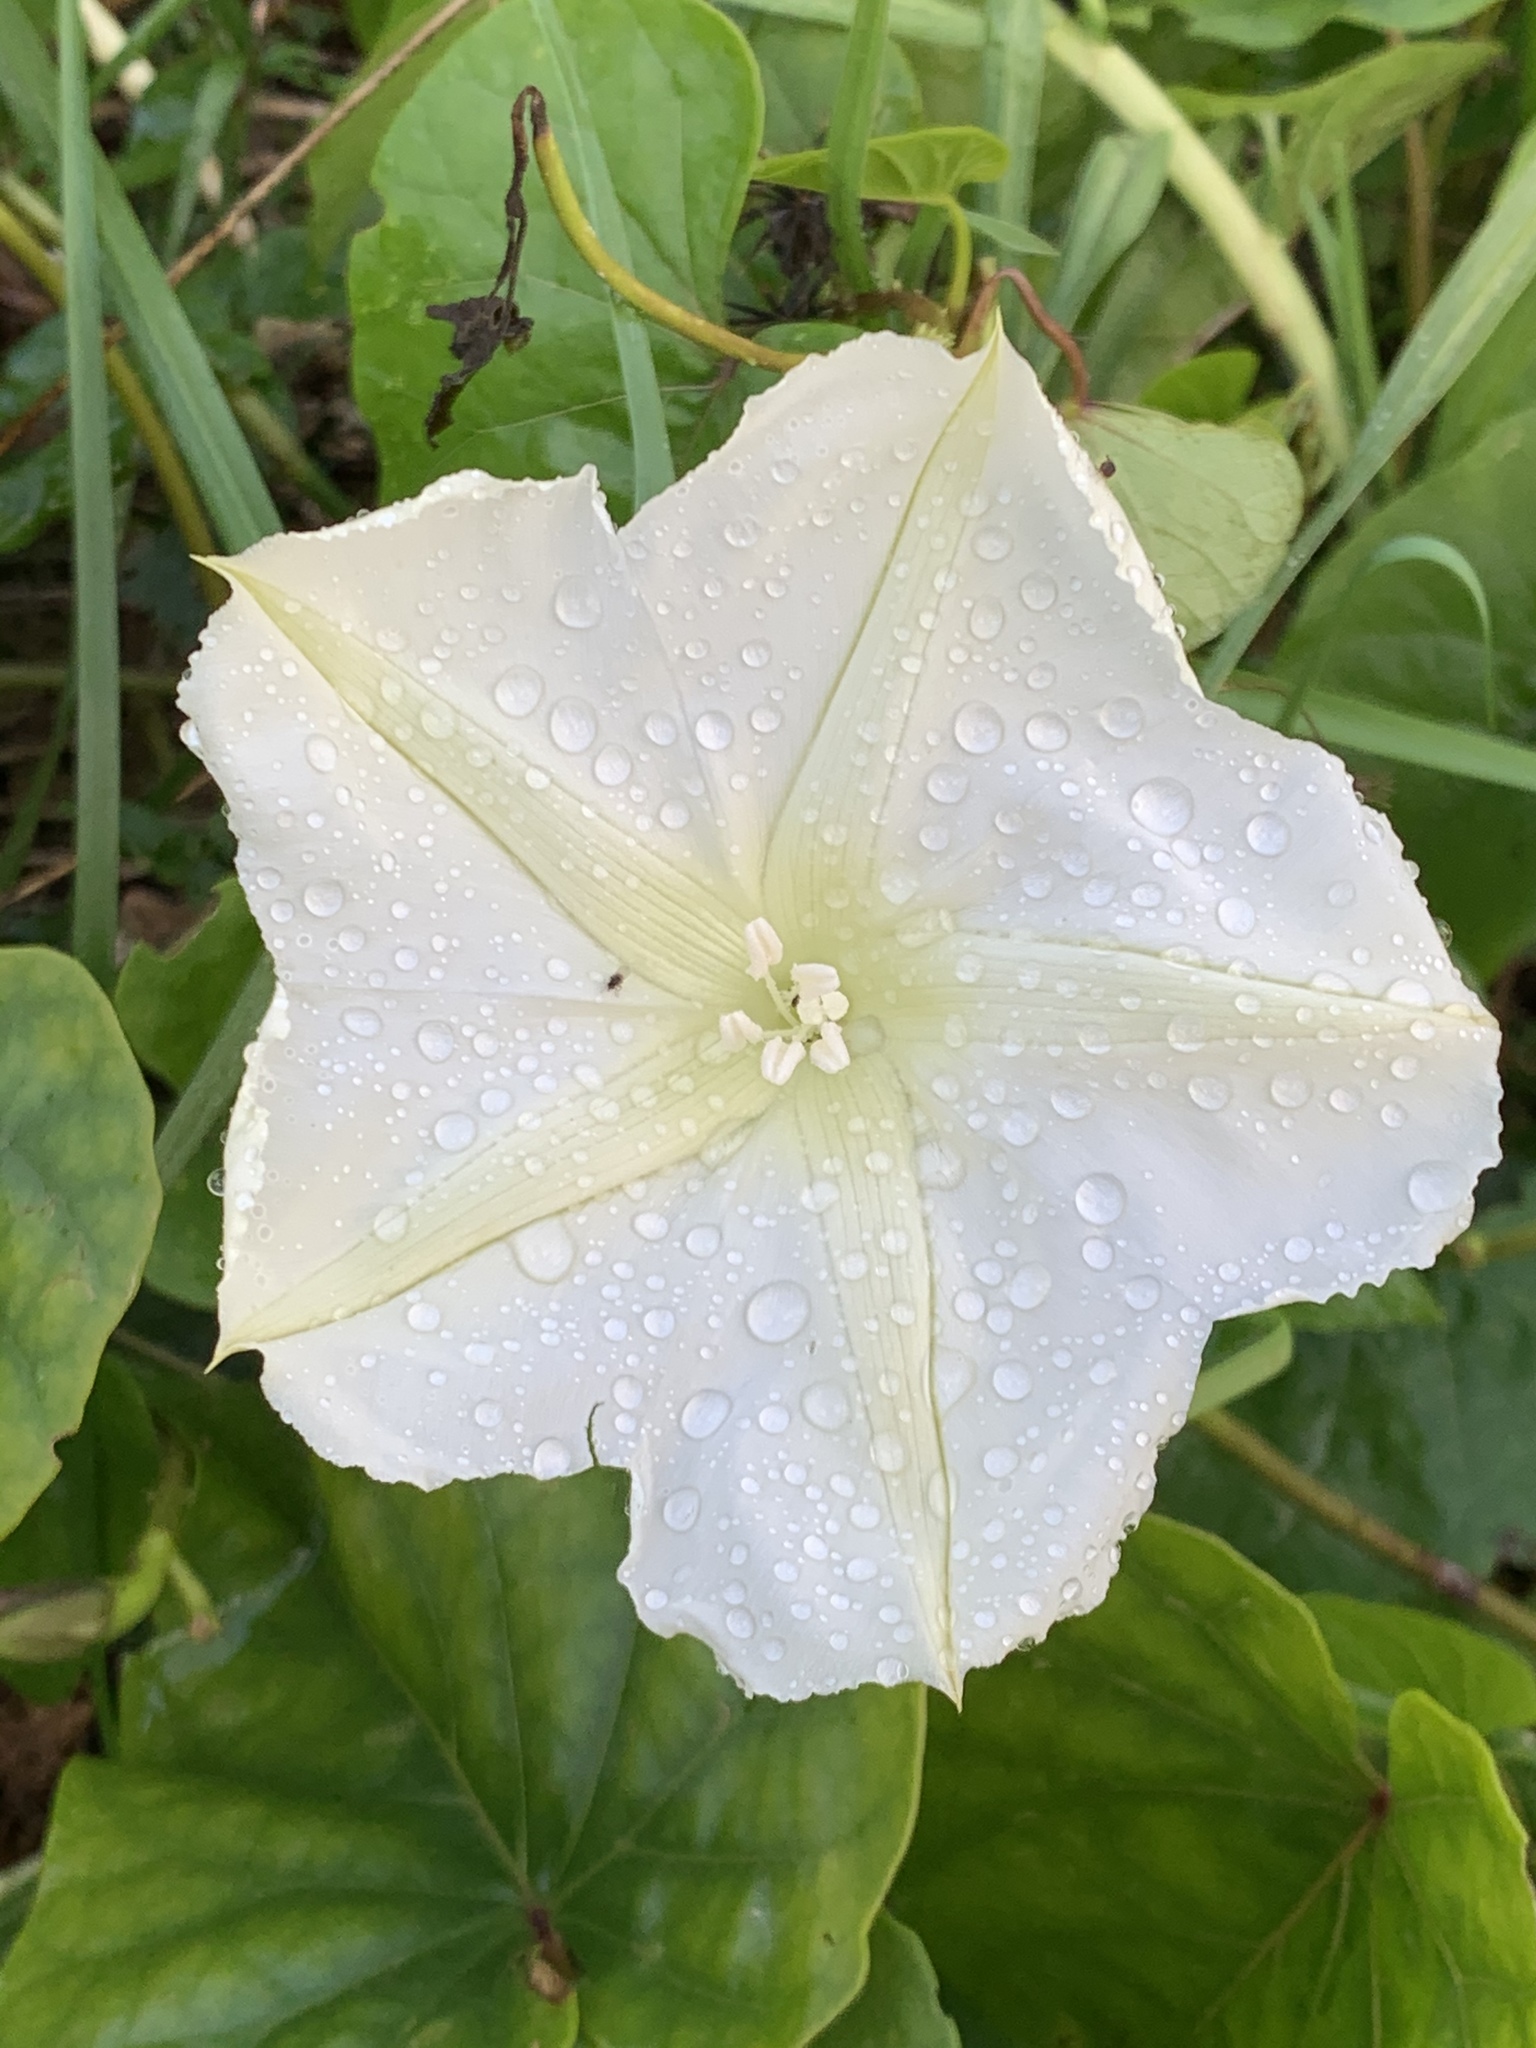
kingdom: Plantae
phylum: Tracheophyta
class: Magnoliopsida
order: Solanales
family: Convolvulaceae
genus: Ipomoea
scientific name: Ipomoea alba
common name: Moonflower
